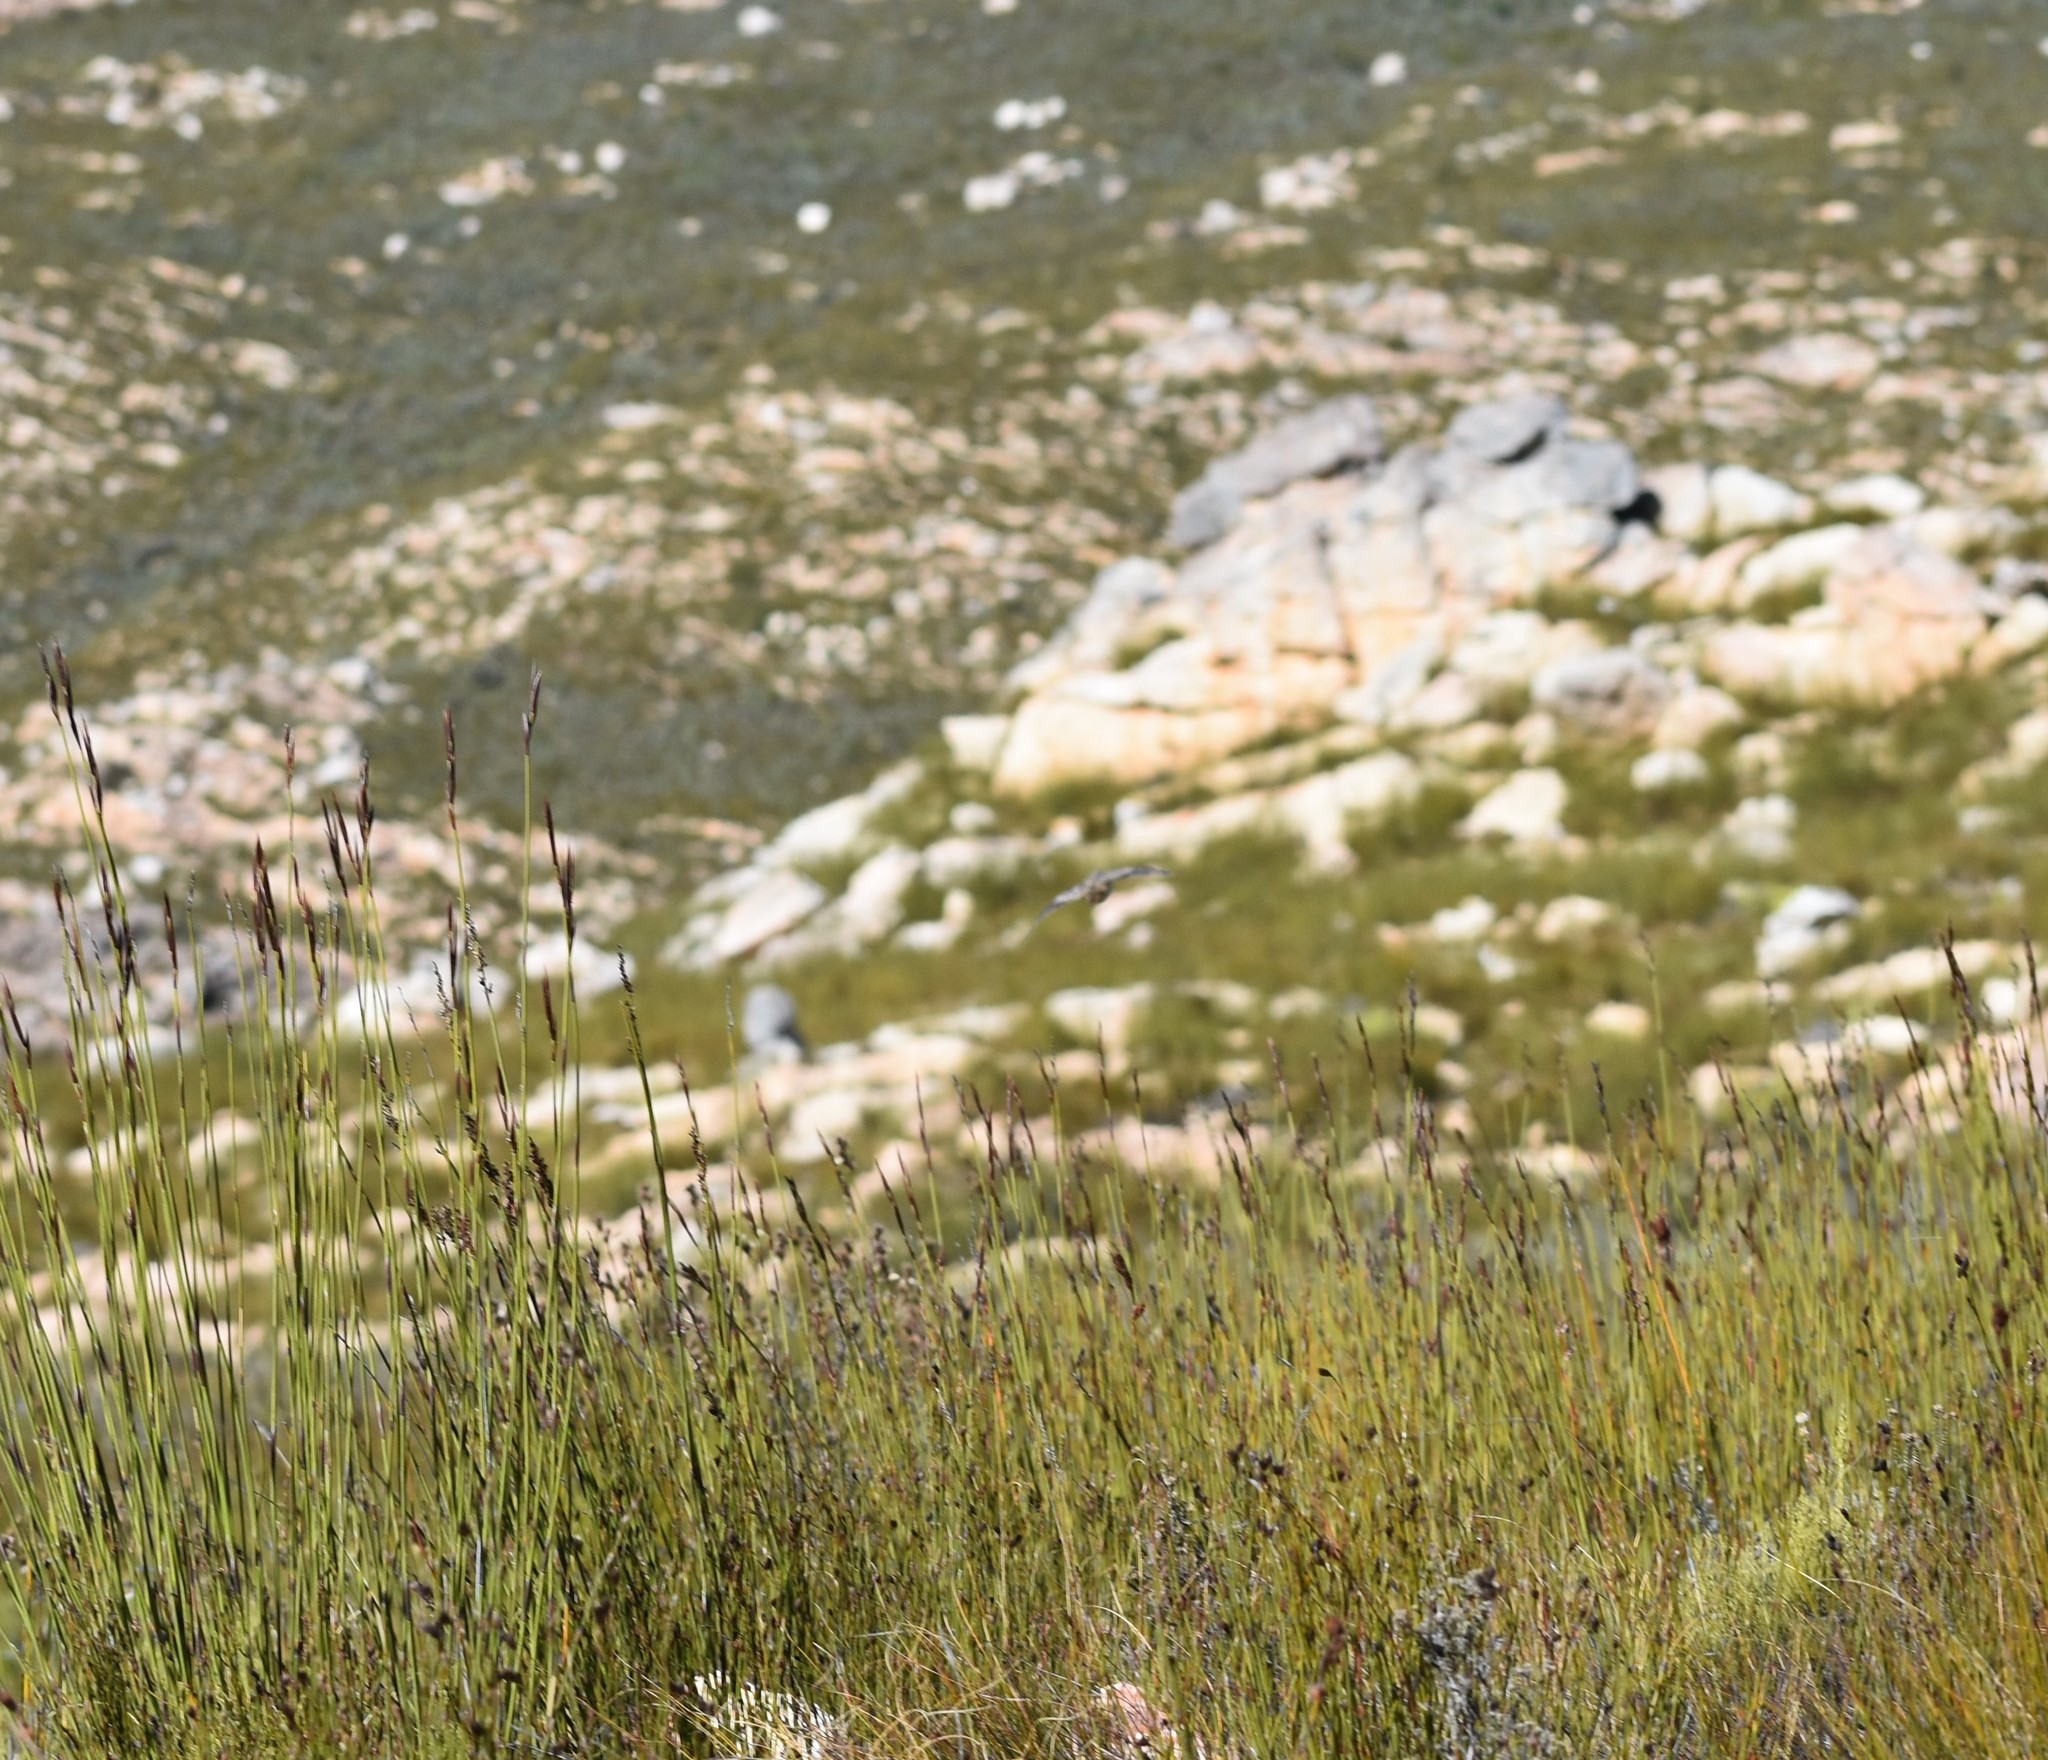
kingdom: Animalia
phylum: Chordata
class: Aves
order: Charadriiformes
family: Turnicidae
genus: Turnix
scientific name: Turnix hottentottus
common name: Hottentot buttonquail
